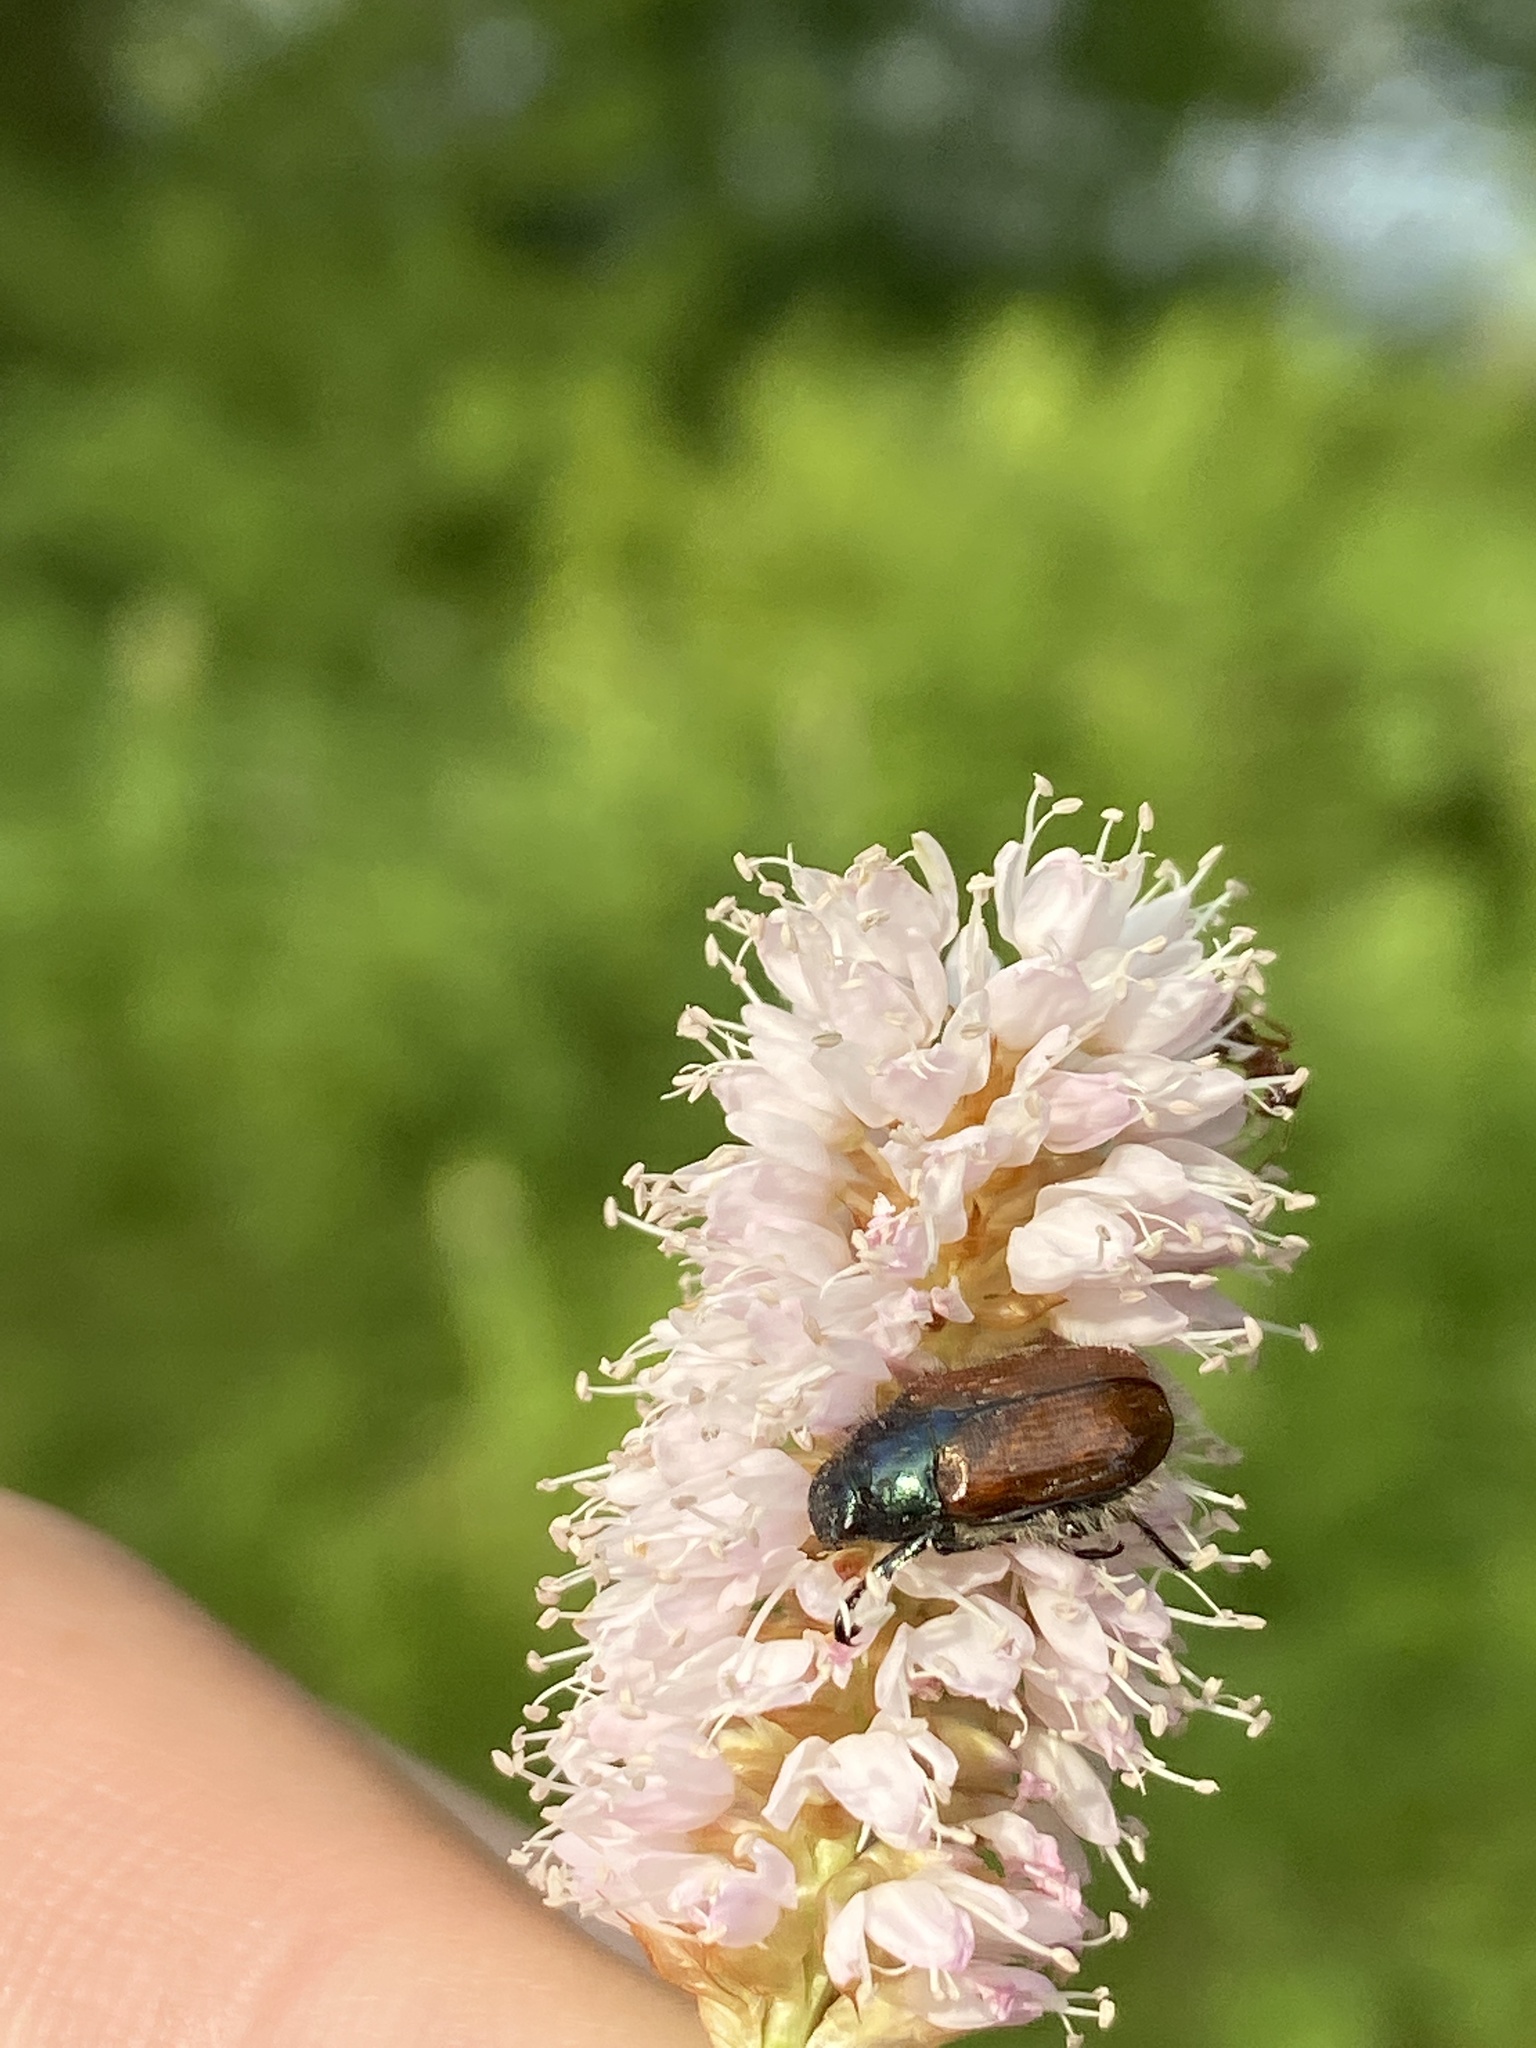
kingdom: Animalia
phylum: Arthropoda
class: Insecta
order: Coleoptera
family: Scarabaeidae
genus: Phyllopertha
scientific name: Phyllopertha horticola
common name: Garden chafer
